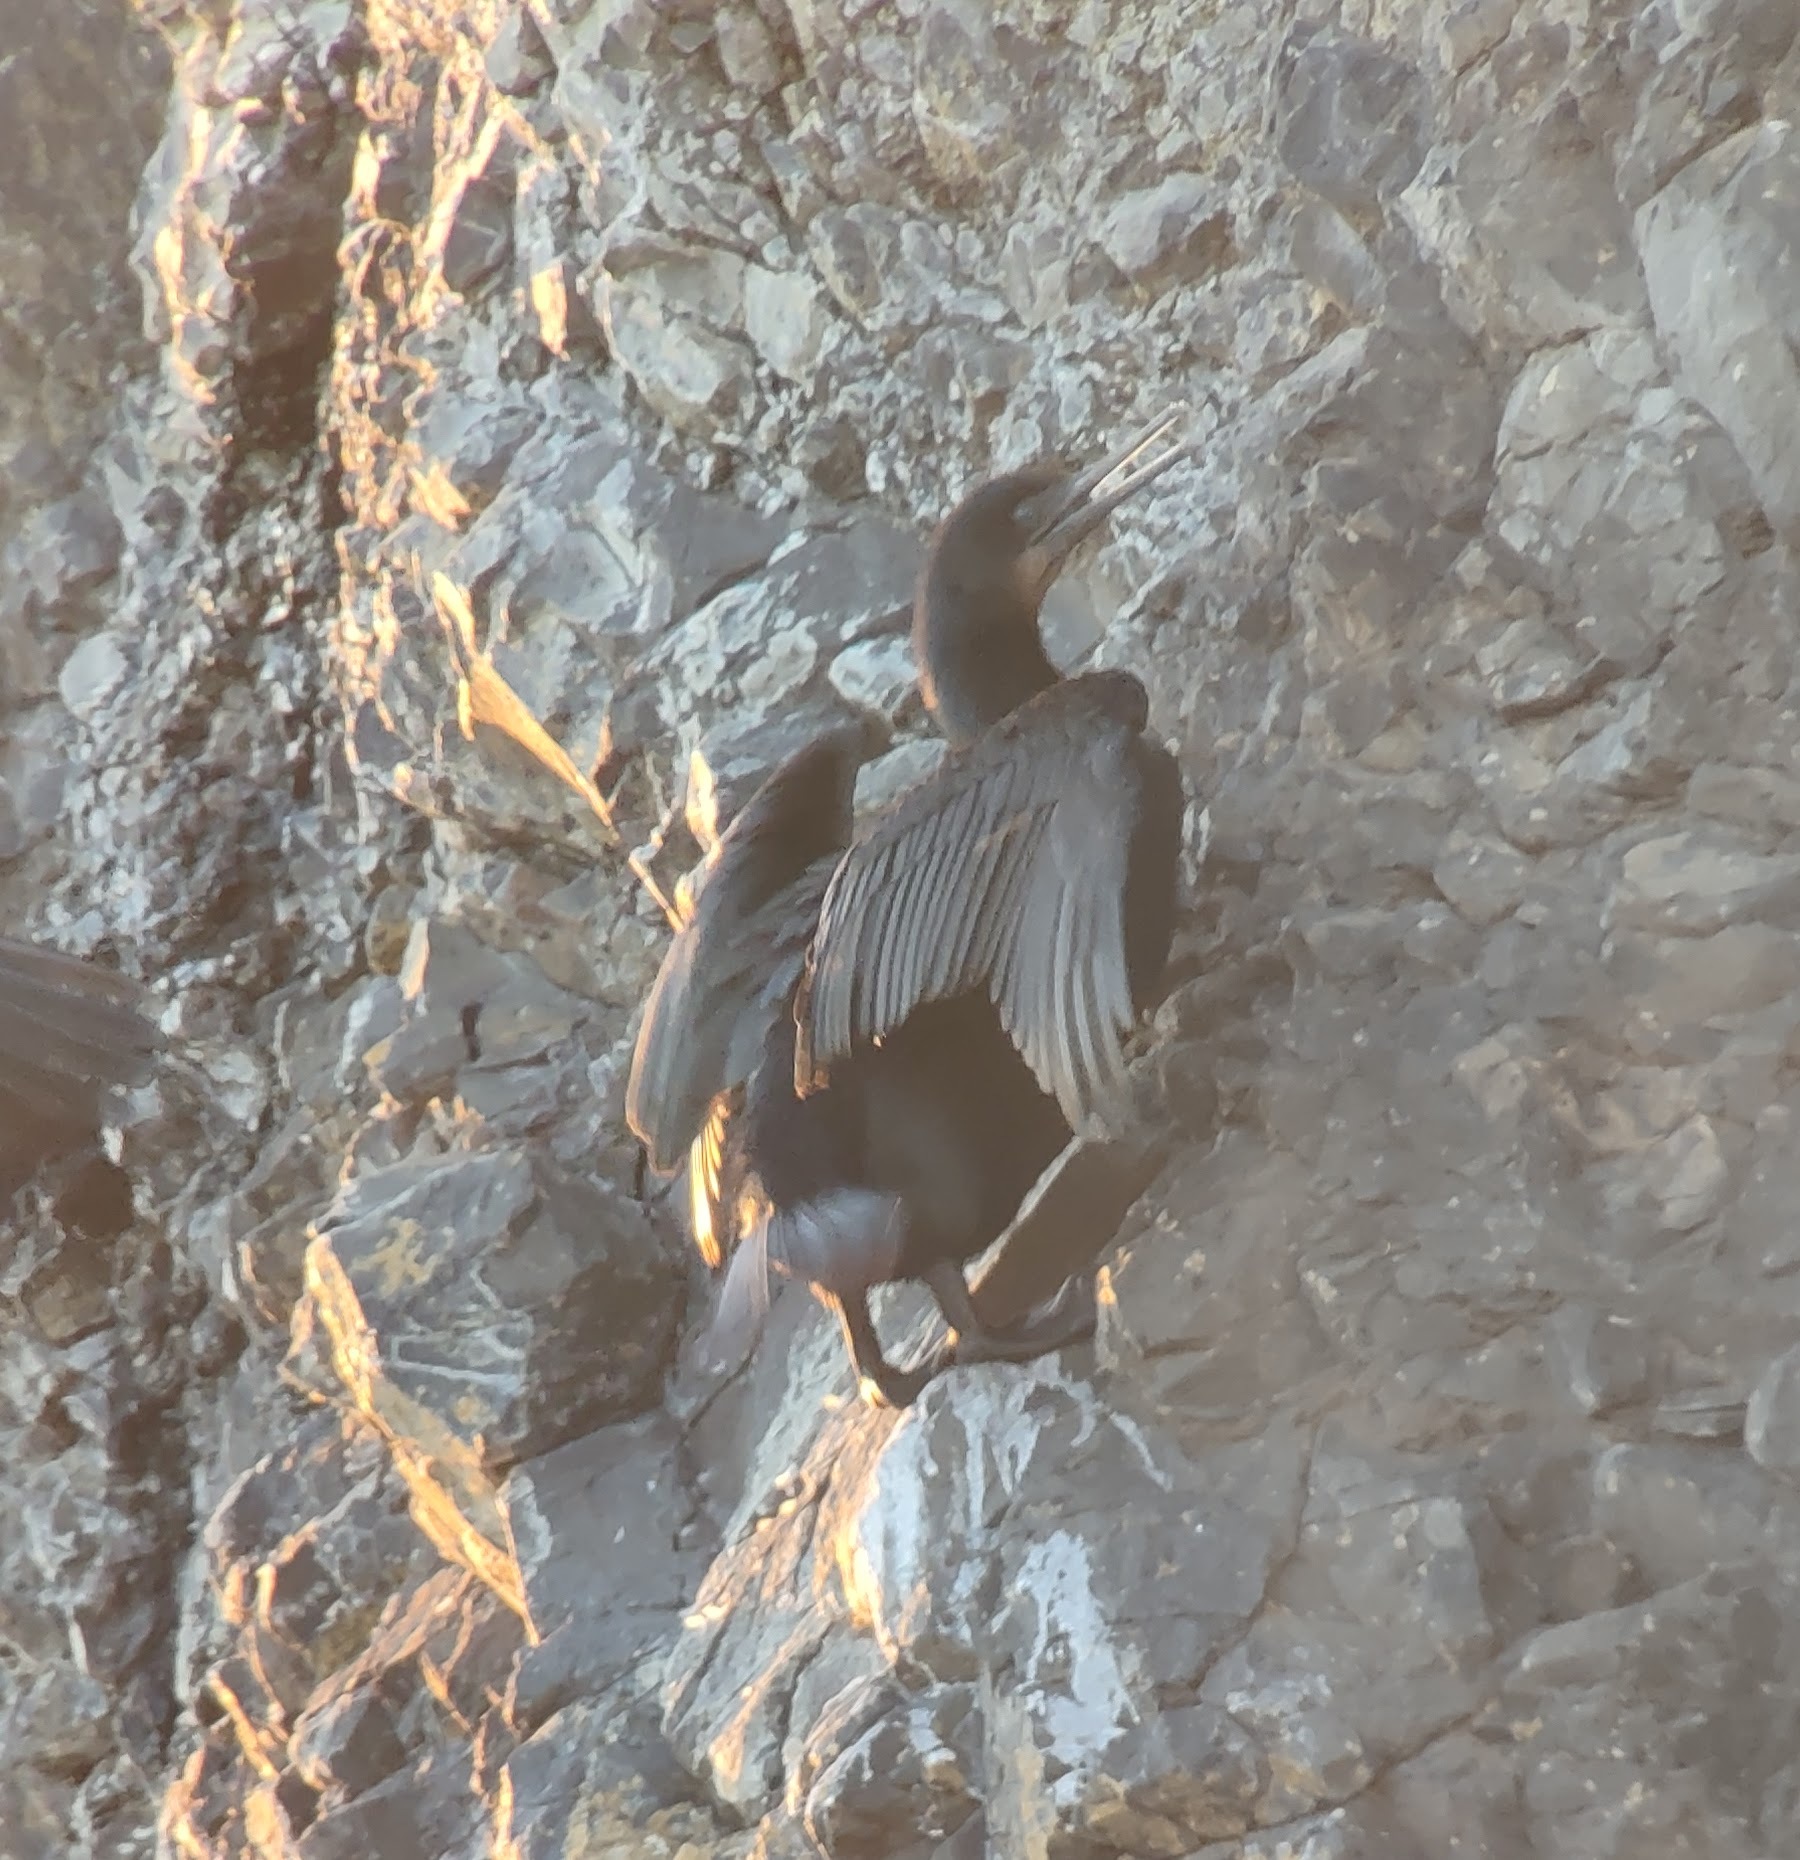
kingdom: Animalia
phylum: Chordata
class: Aves
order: Suliformes
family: Phalacrocoracidae
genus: Urile
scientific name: Urile penicillatus
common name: Brandt's cormorant
